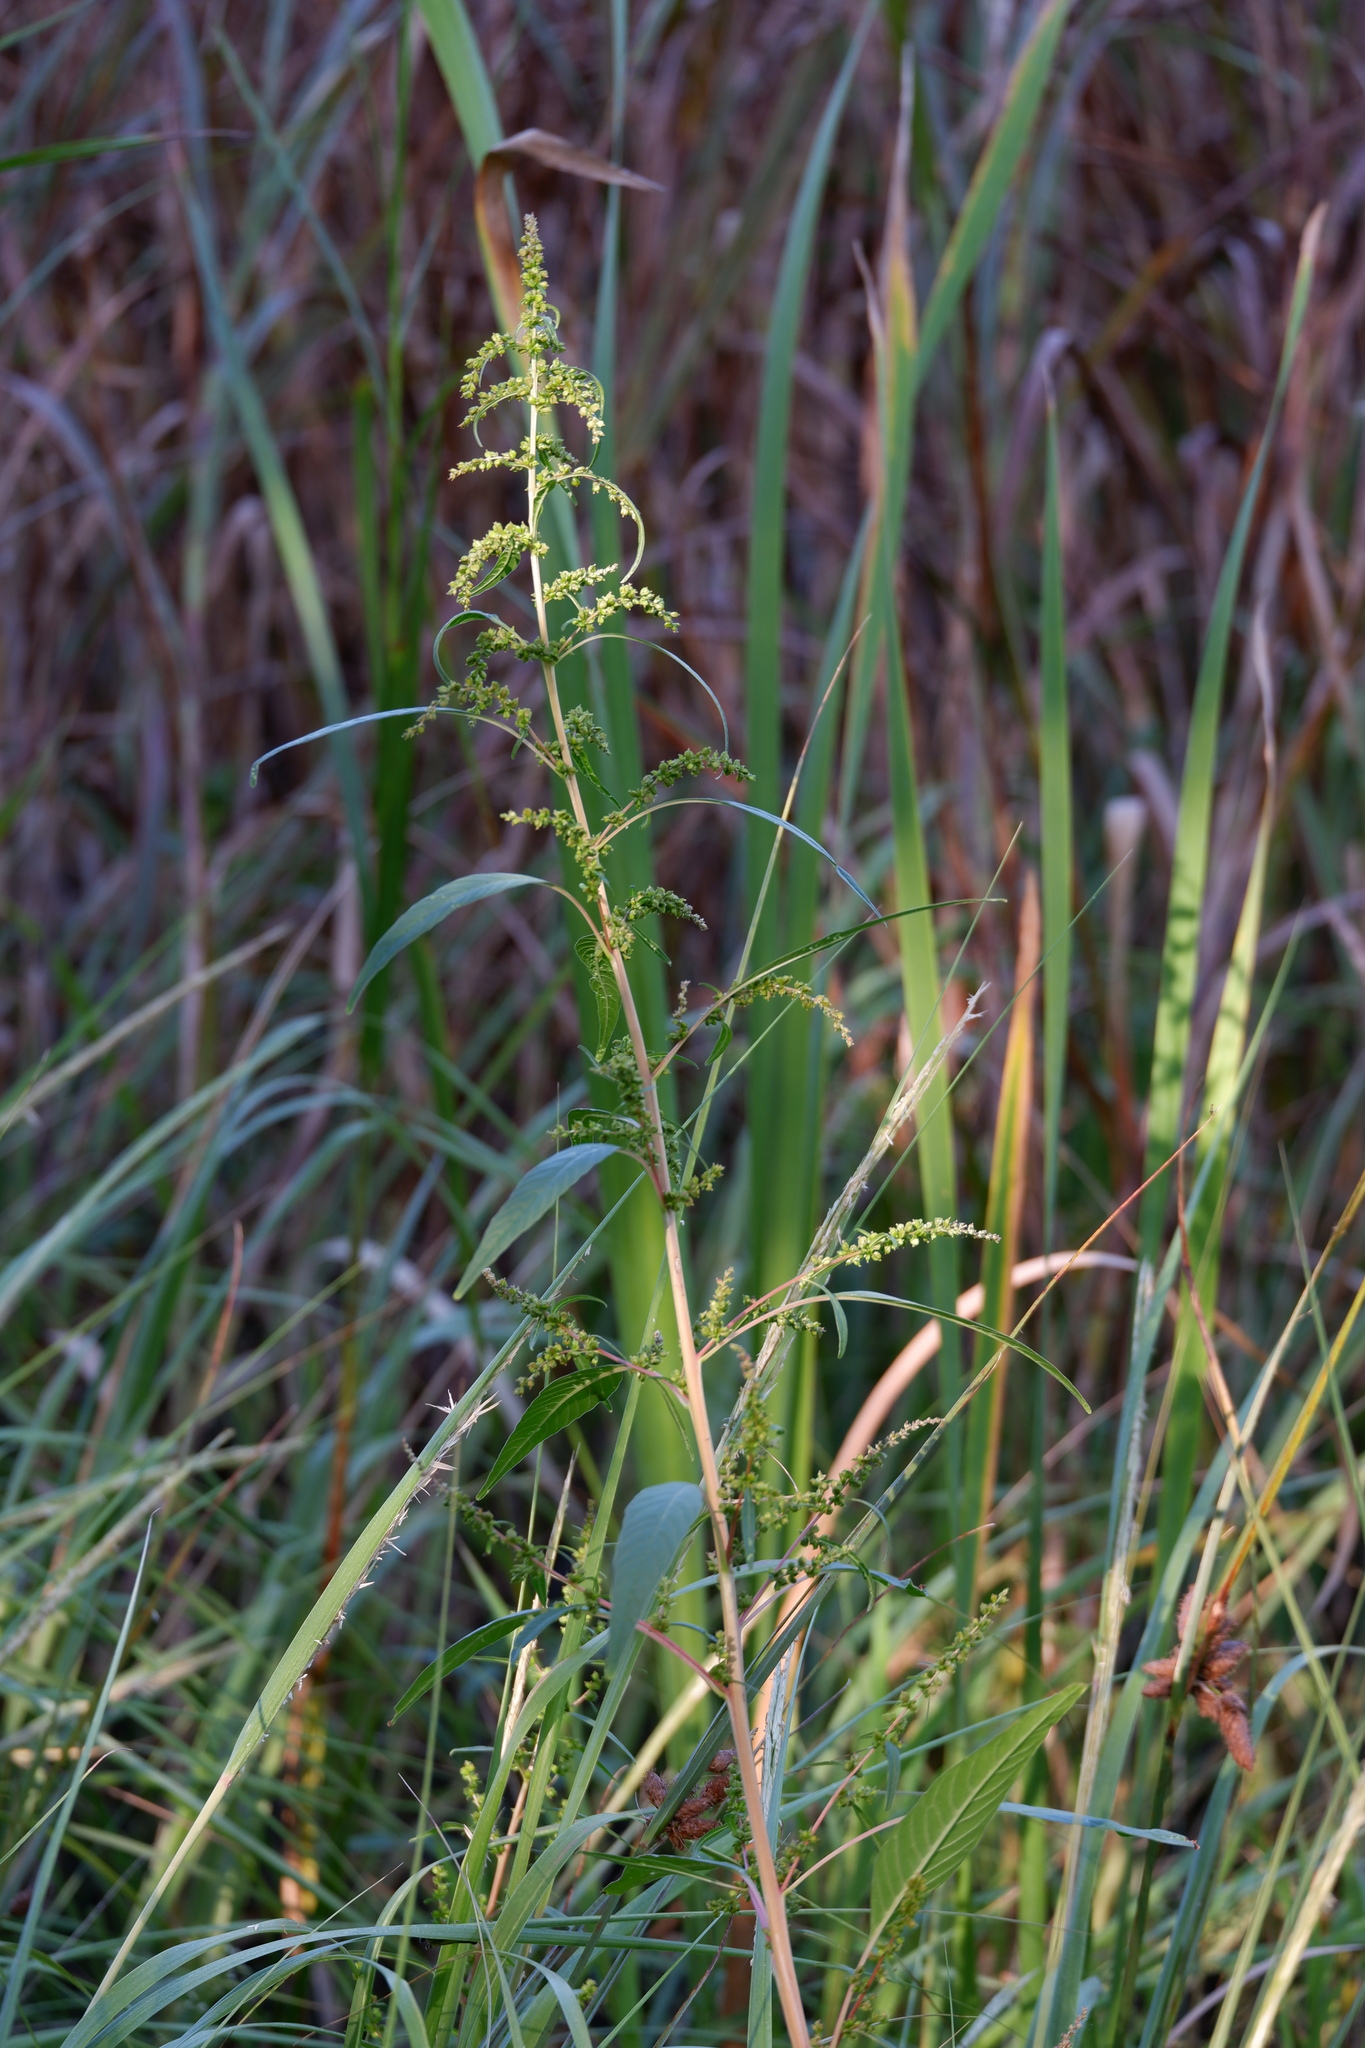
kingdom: Plantae
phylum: Tracheophyta
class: Magnoliopsida
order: Caryophyllales
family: Amaranthaceae
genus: Amaranthus
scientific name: Amaranthus cannabinus
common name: Salt-marsh water-hemp
